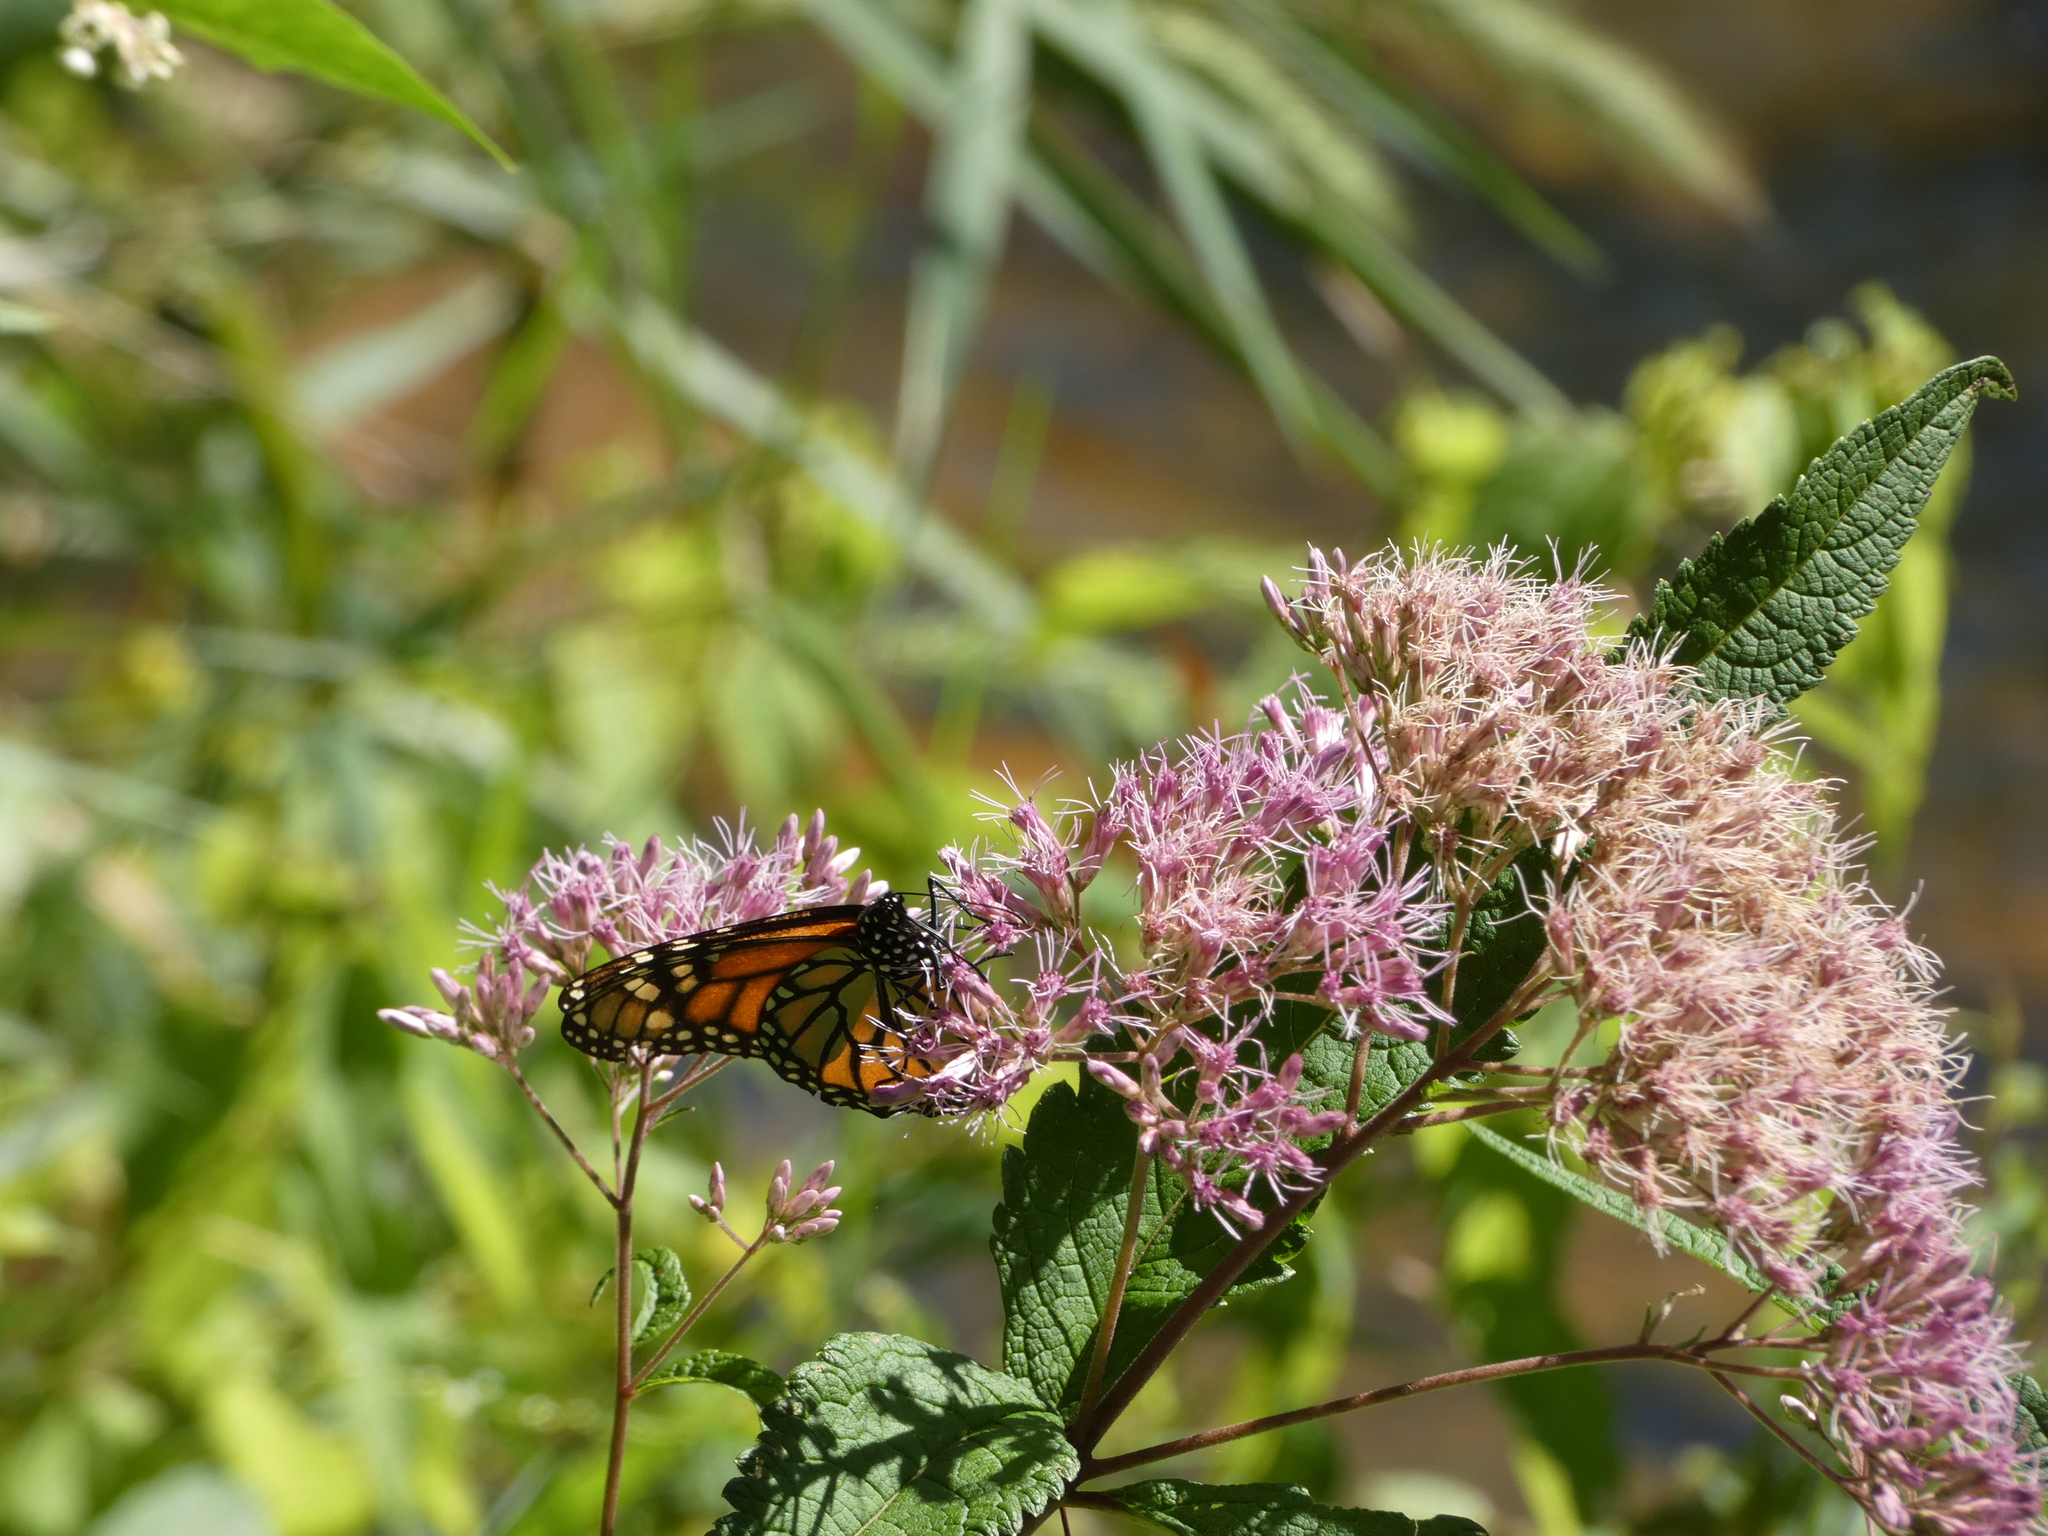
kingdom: Animalia
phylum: Arthropoda
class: Insecta
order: Lepidoptera
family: Nymphalidae
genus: Danaus
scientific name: Danaus plexippus
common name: Monarch
